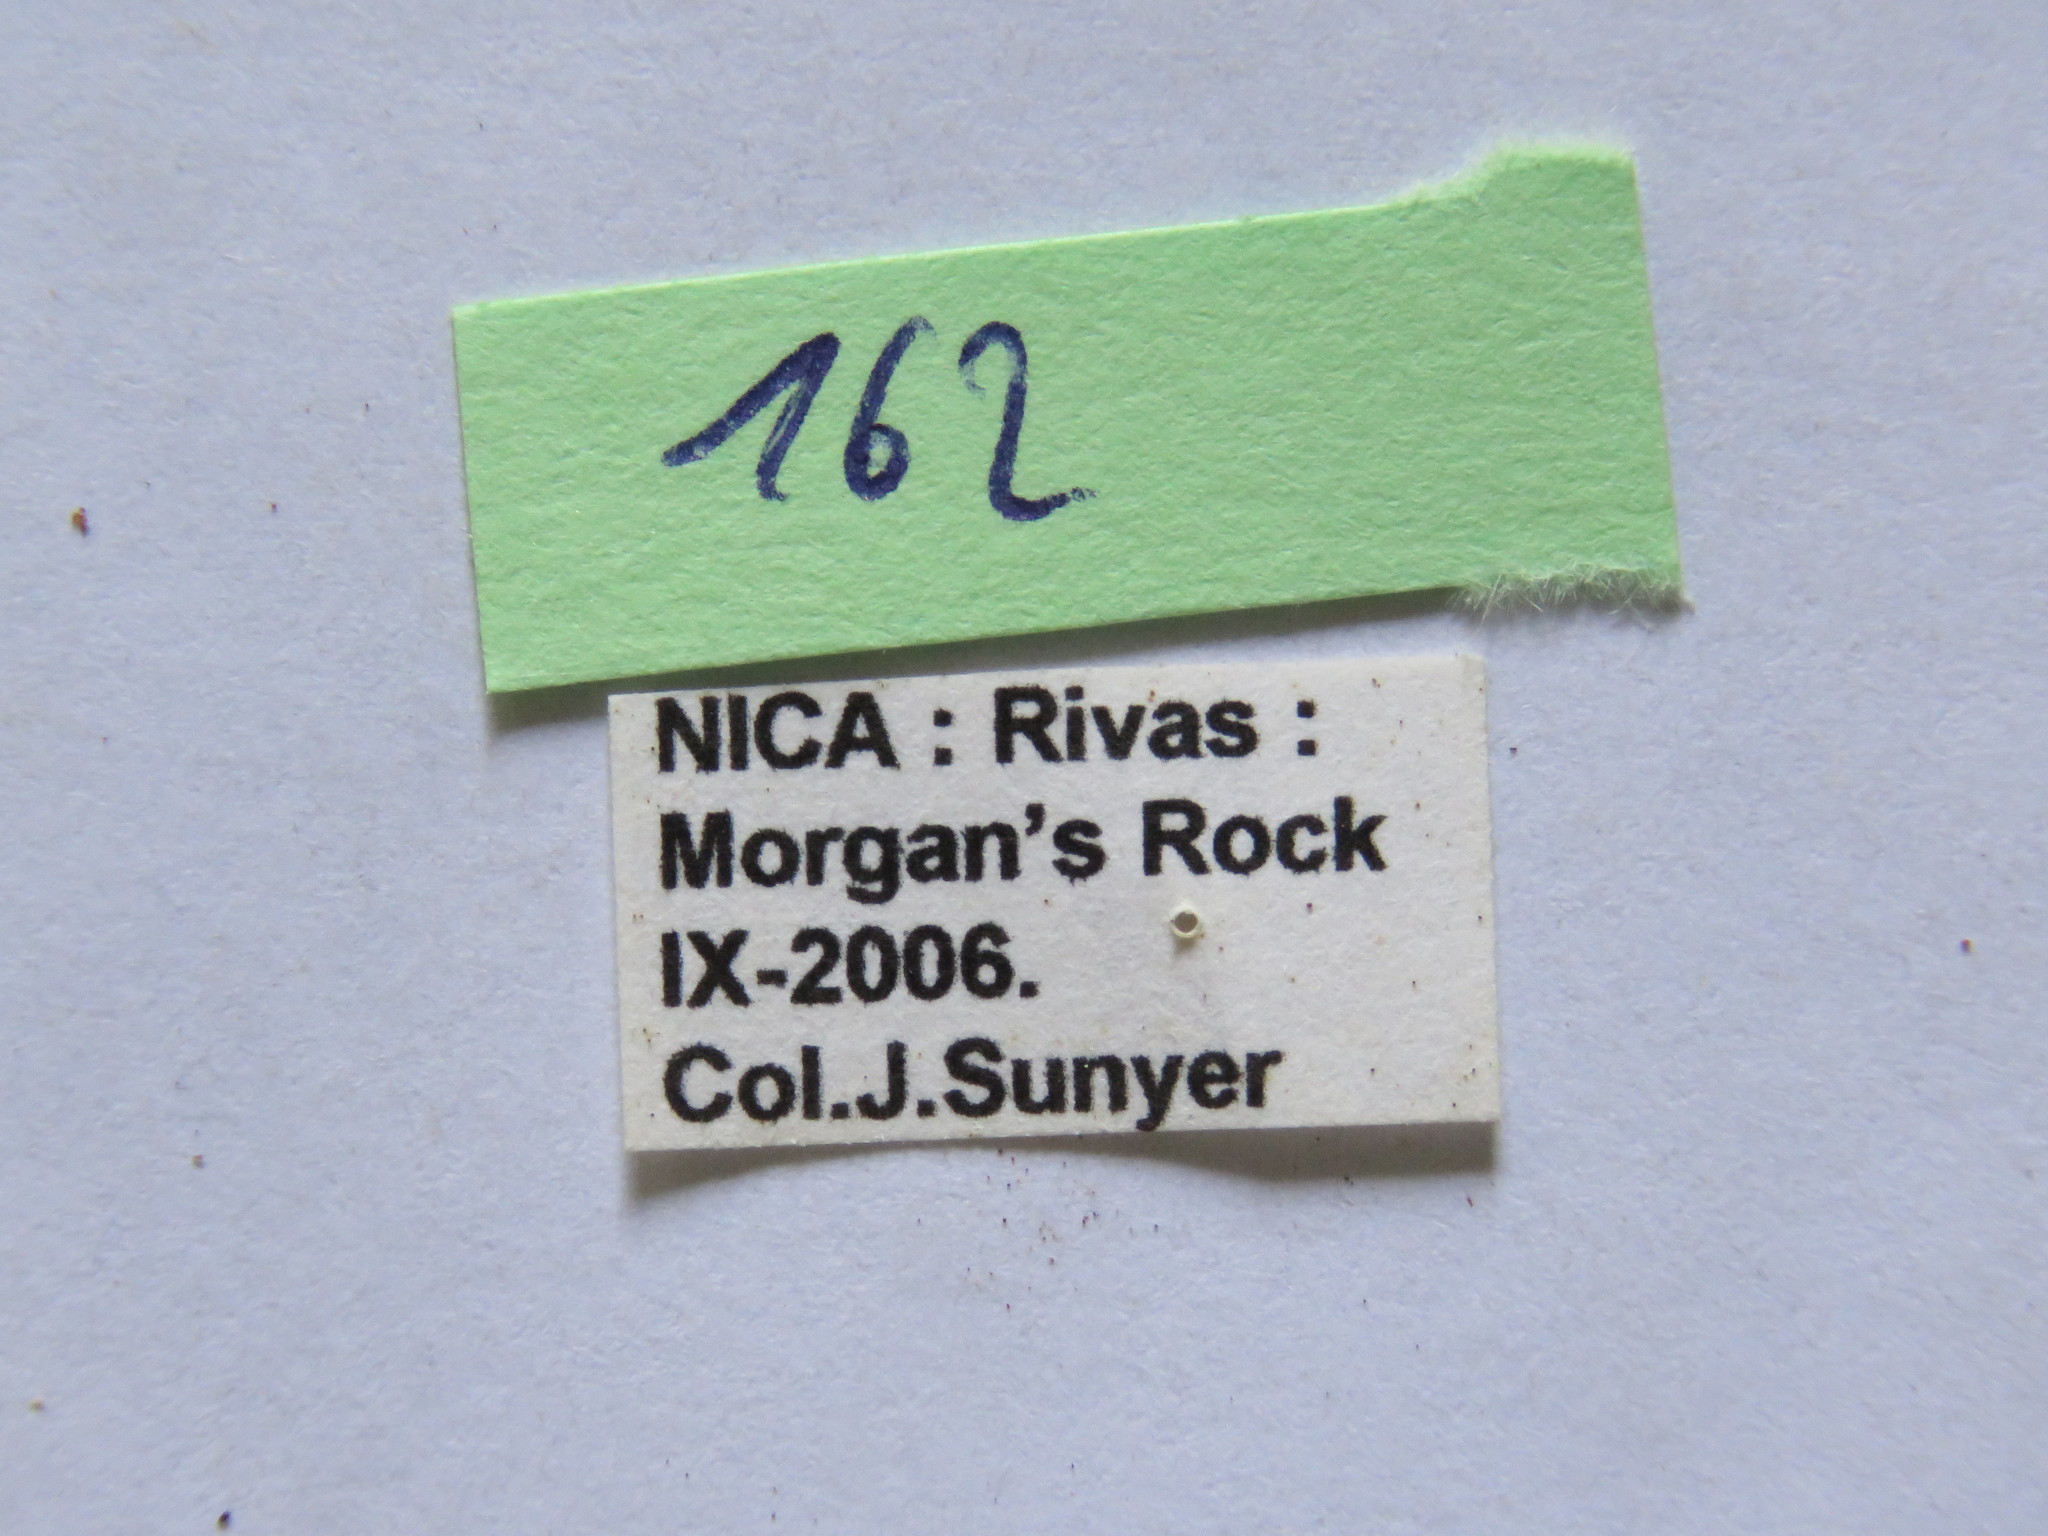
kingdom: Animalia
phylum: Arthropoda
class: Insecta
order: Hemiptera
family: Coreidae
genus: Sephina
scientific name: Sephina subulata
